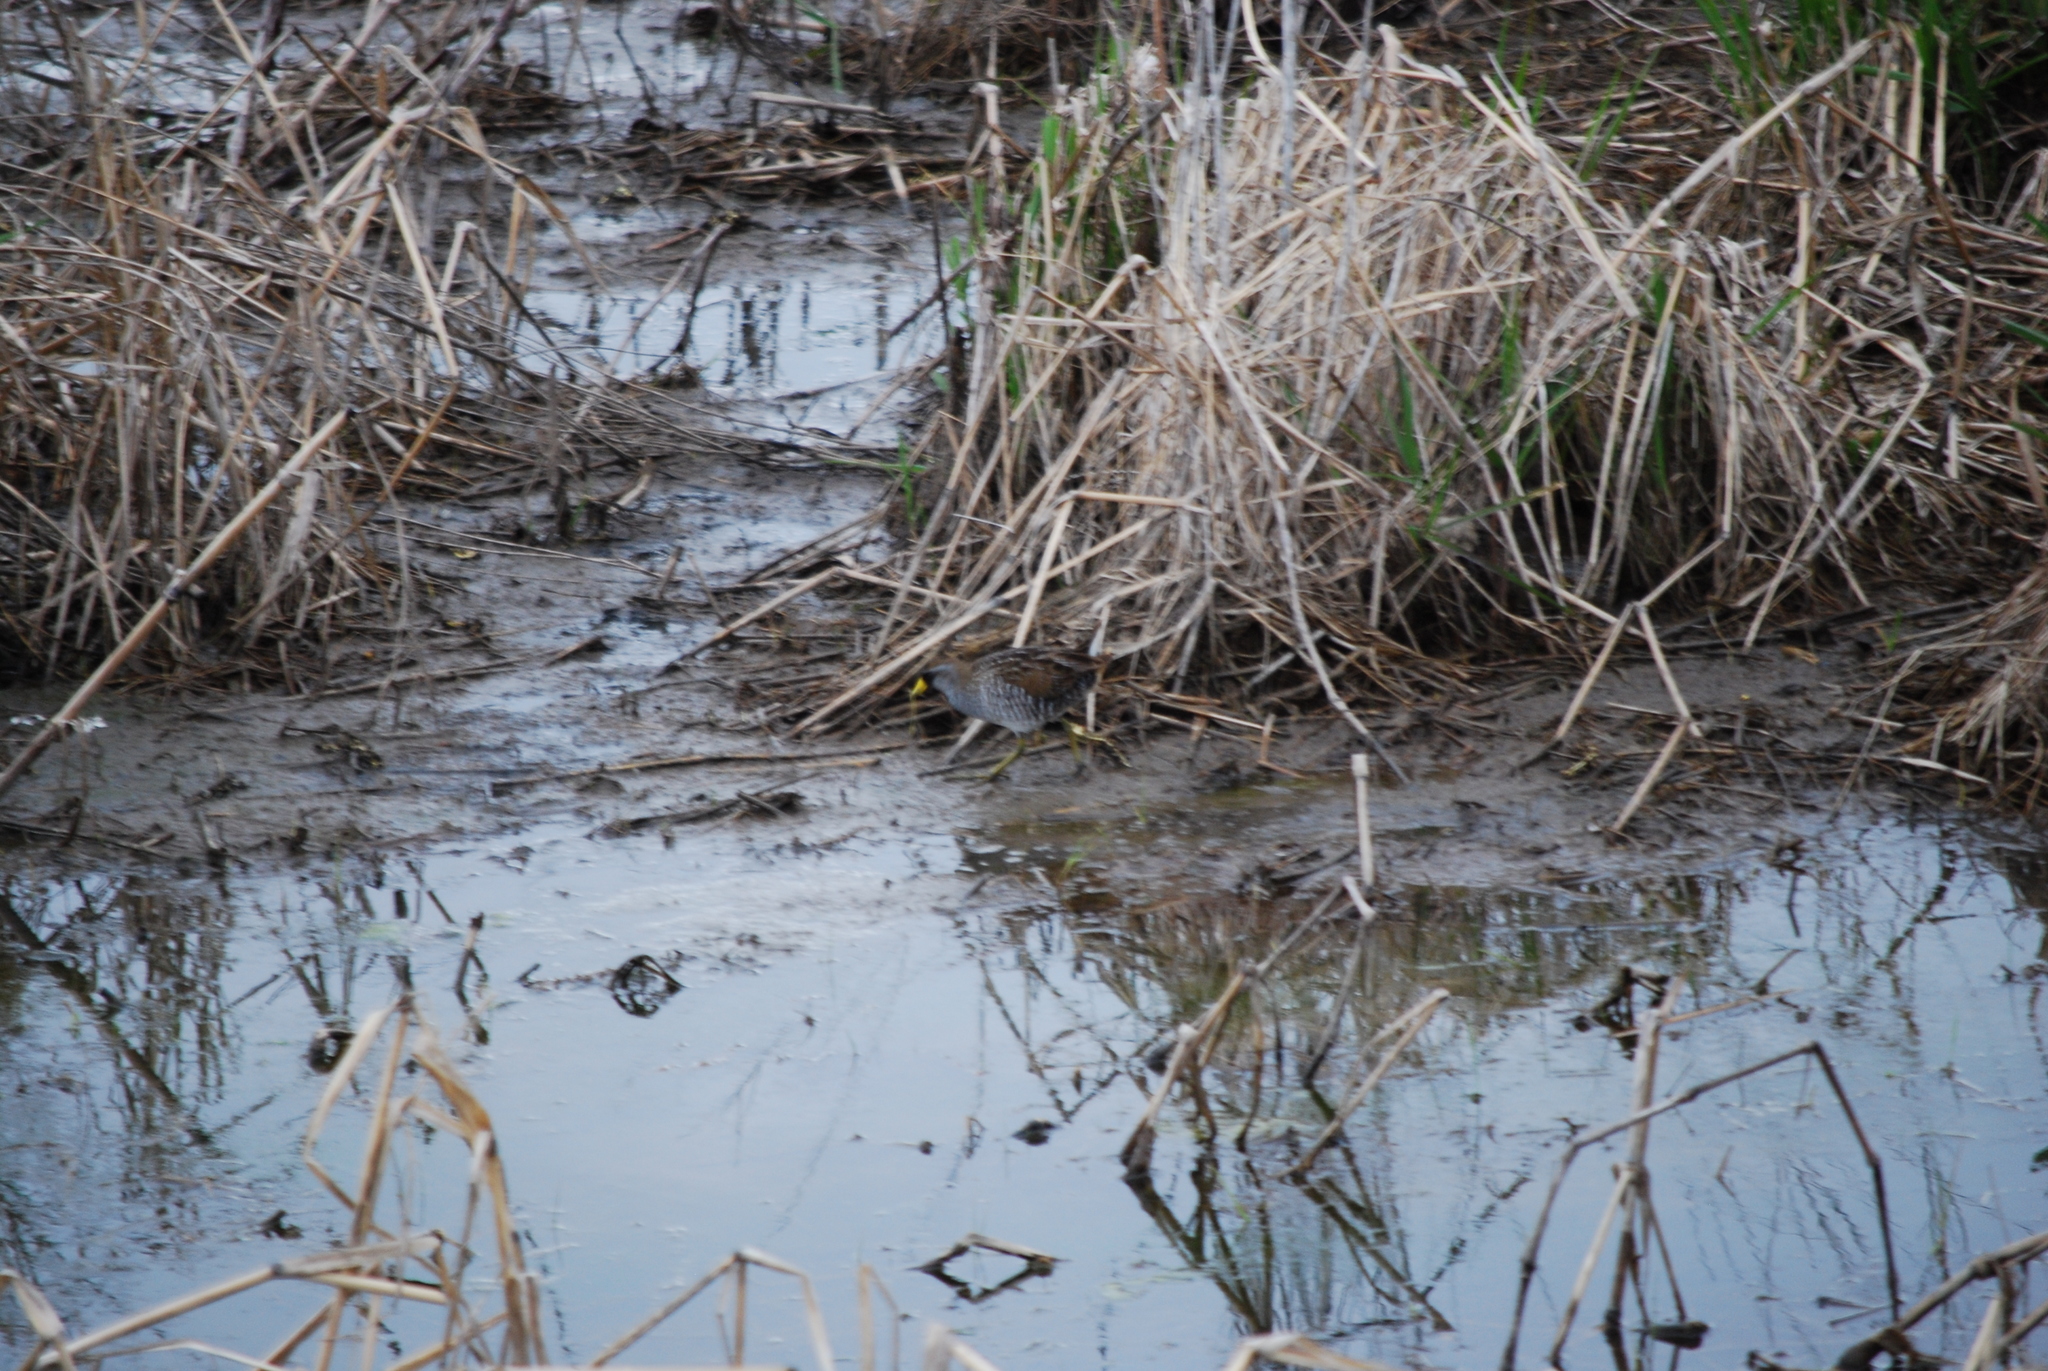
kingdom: Animalia
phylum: Chordata
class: Aves
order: Gruiformes
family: Rallidae
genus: Porzana
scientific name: Porzana carolina
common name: Sora
